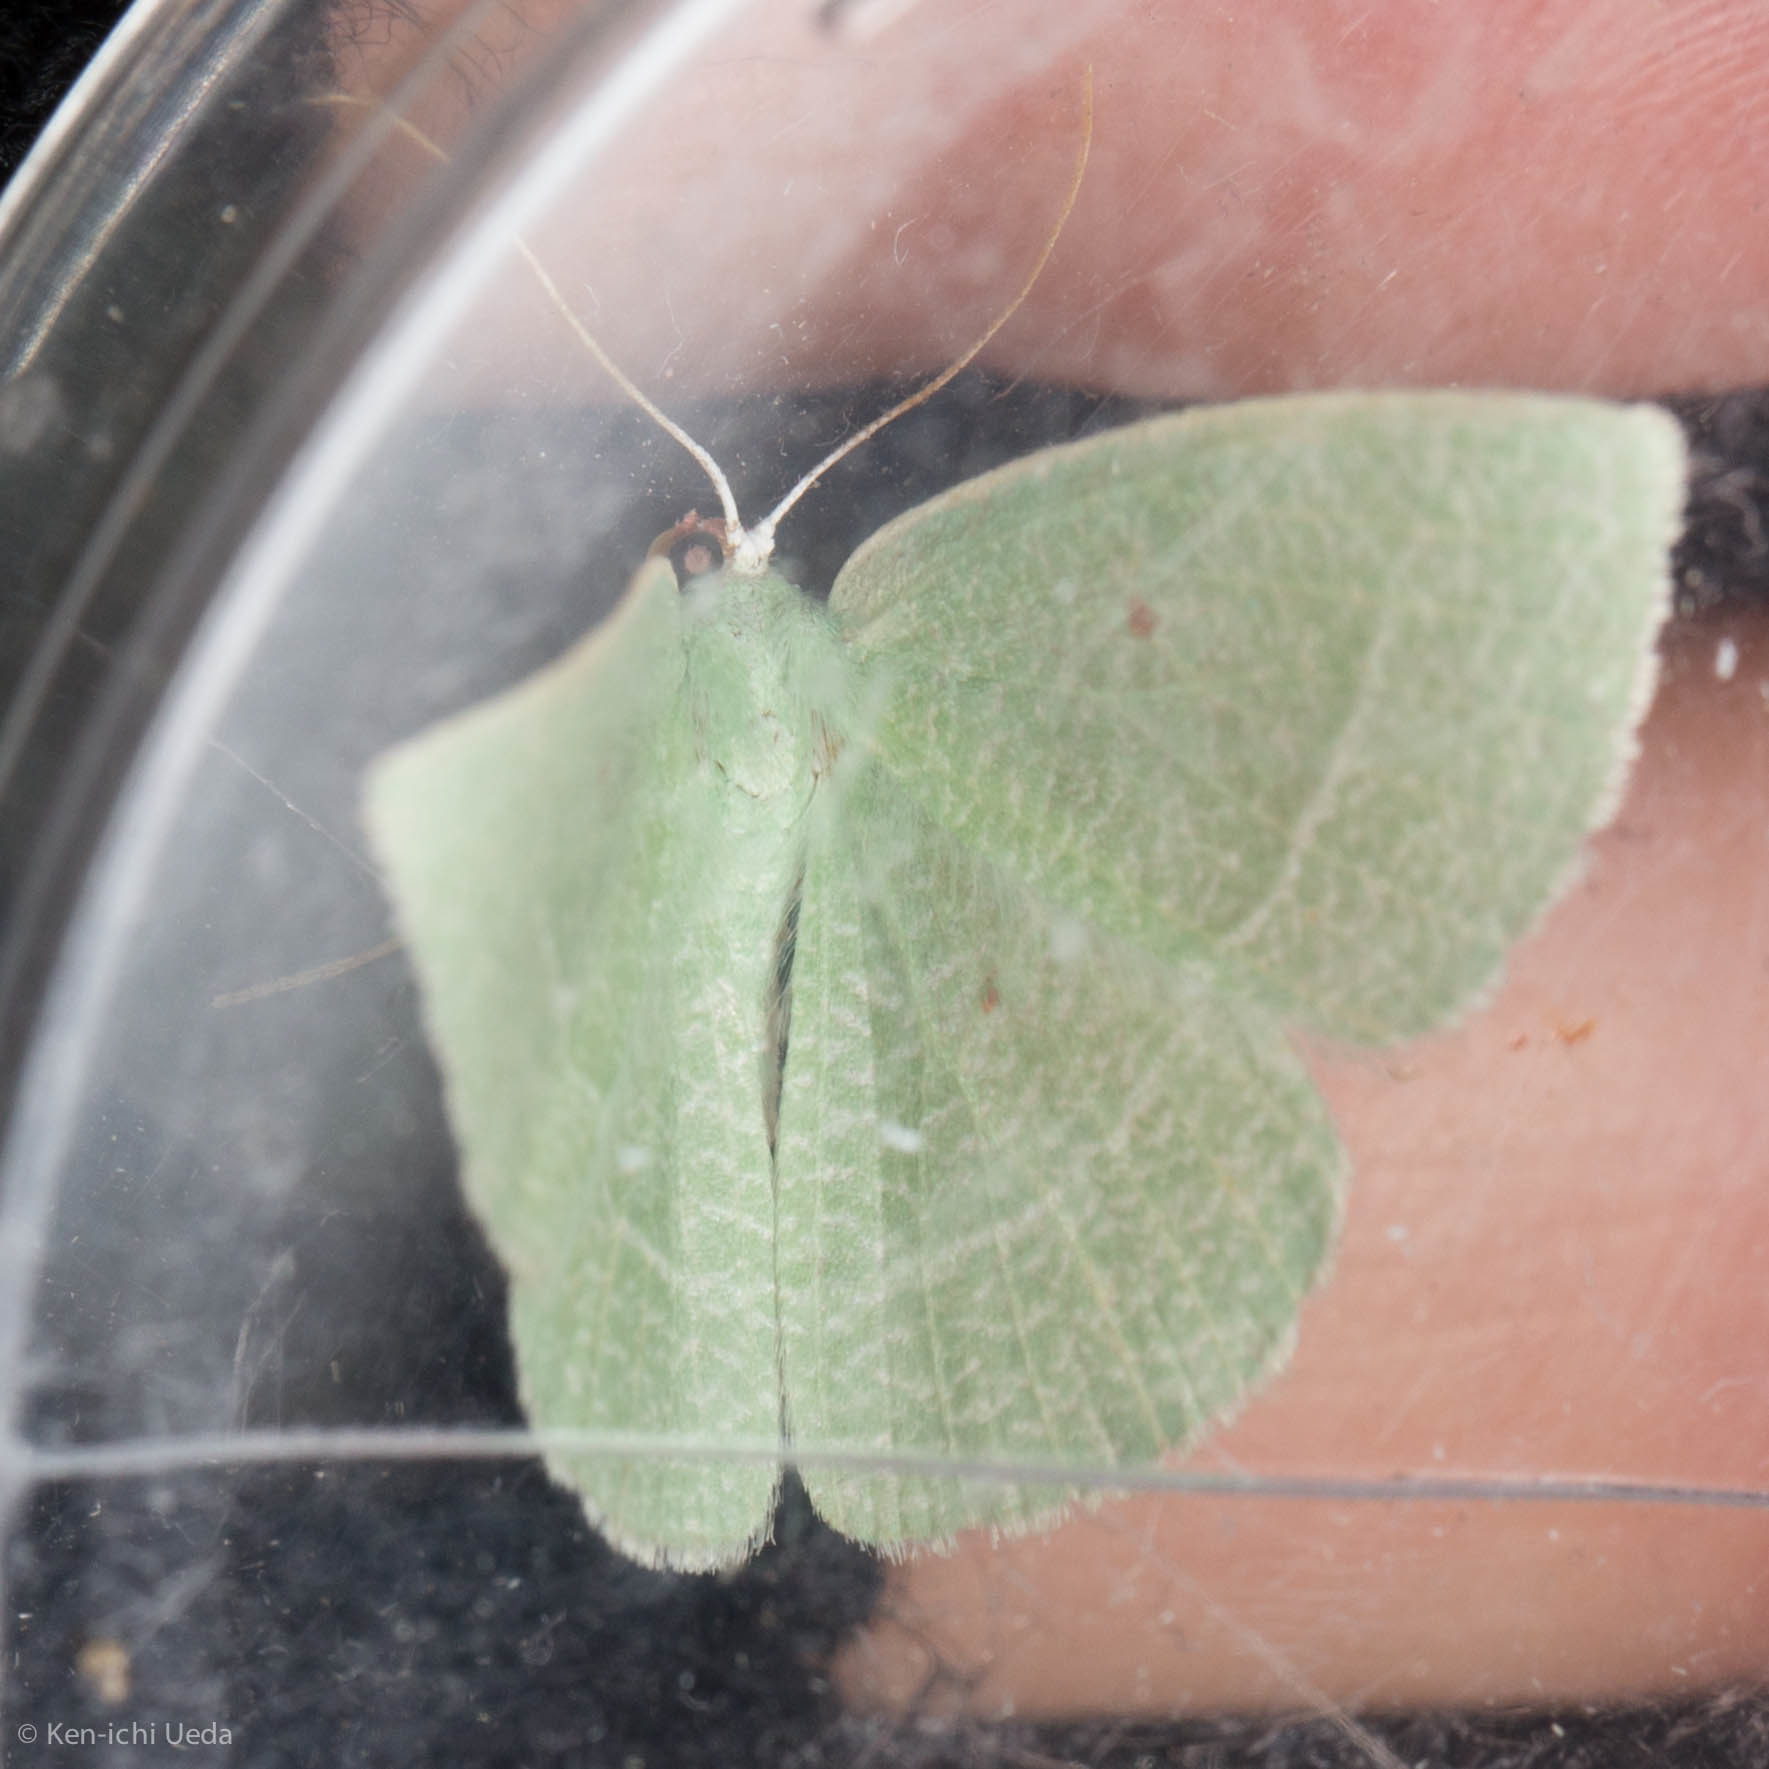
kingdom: Animalia
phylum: Arthropoda
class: Insecta
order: Lepidoptera
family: Geometridae
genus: Nemoria
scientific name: Nemoria pistaciaria
